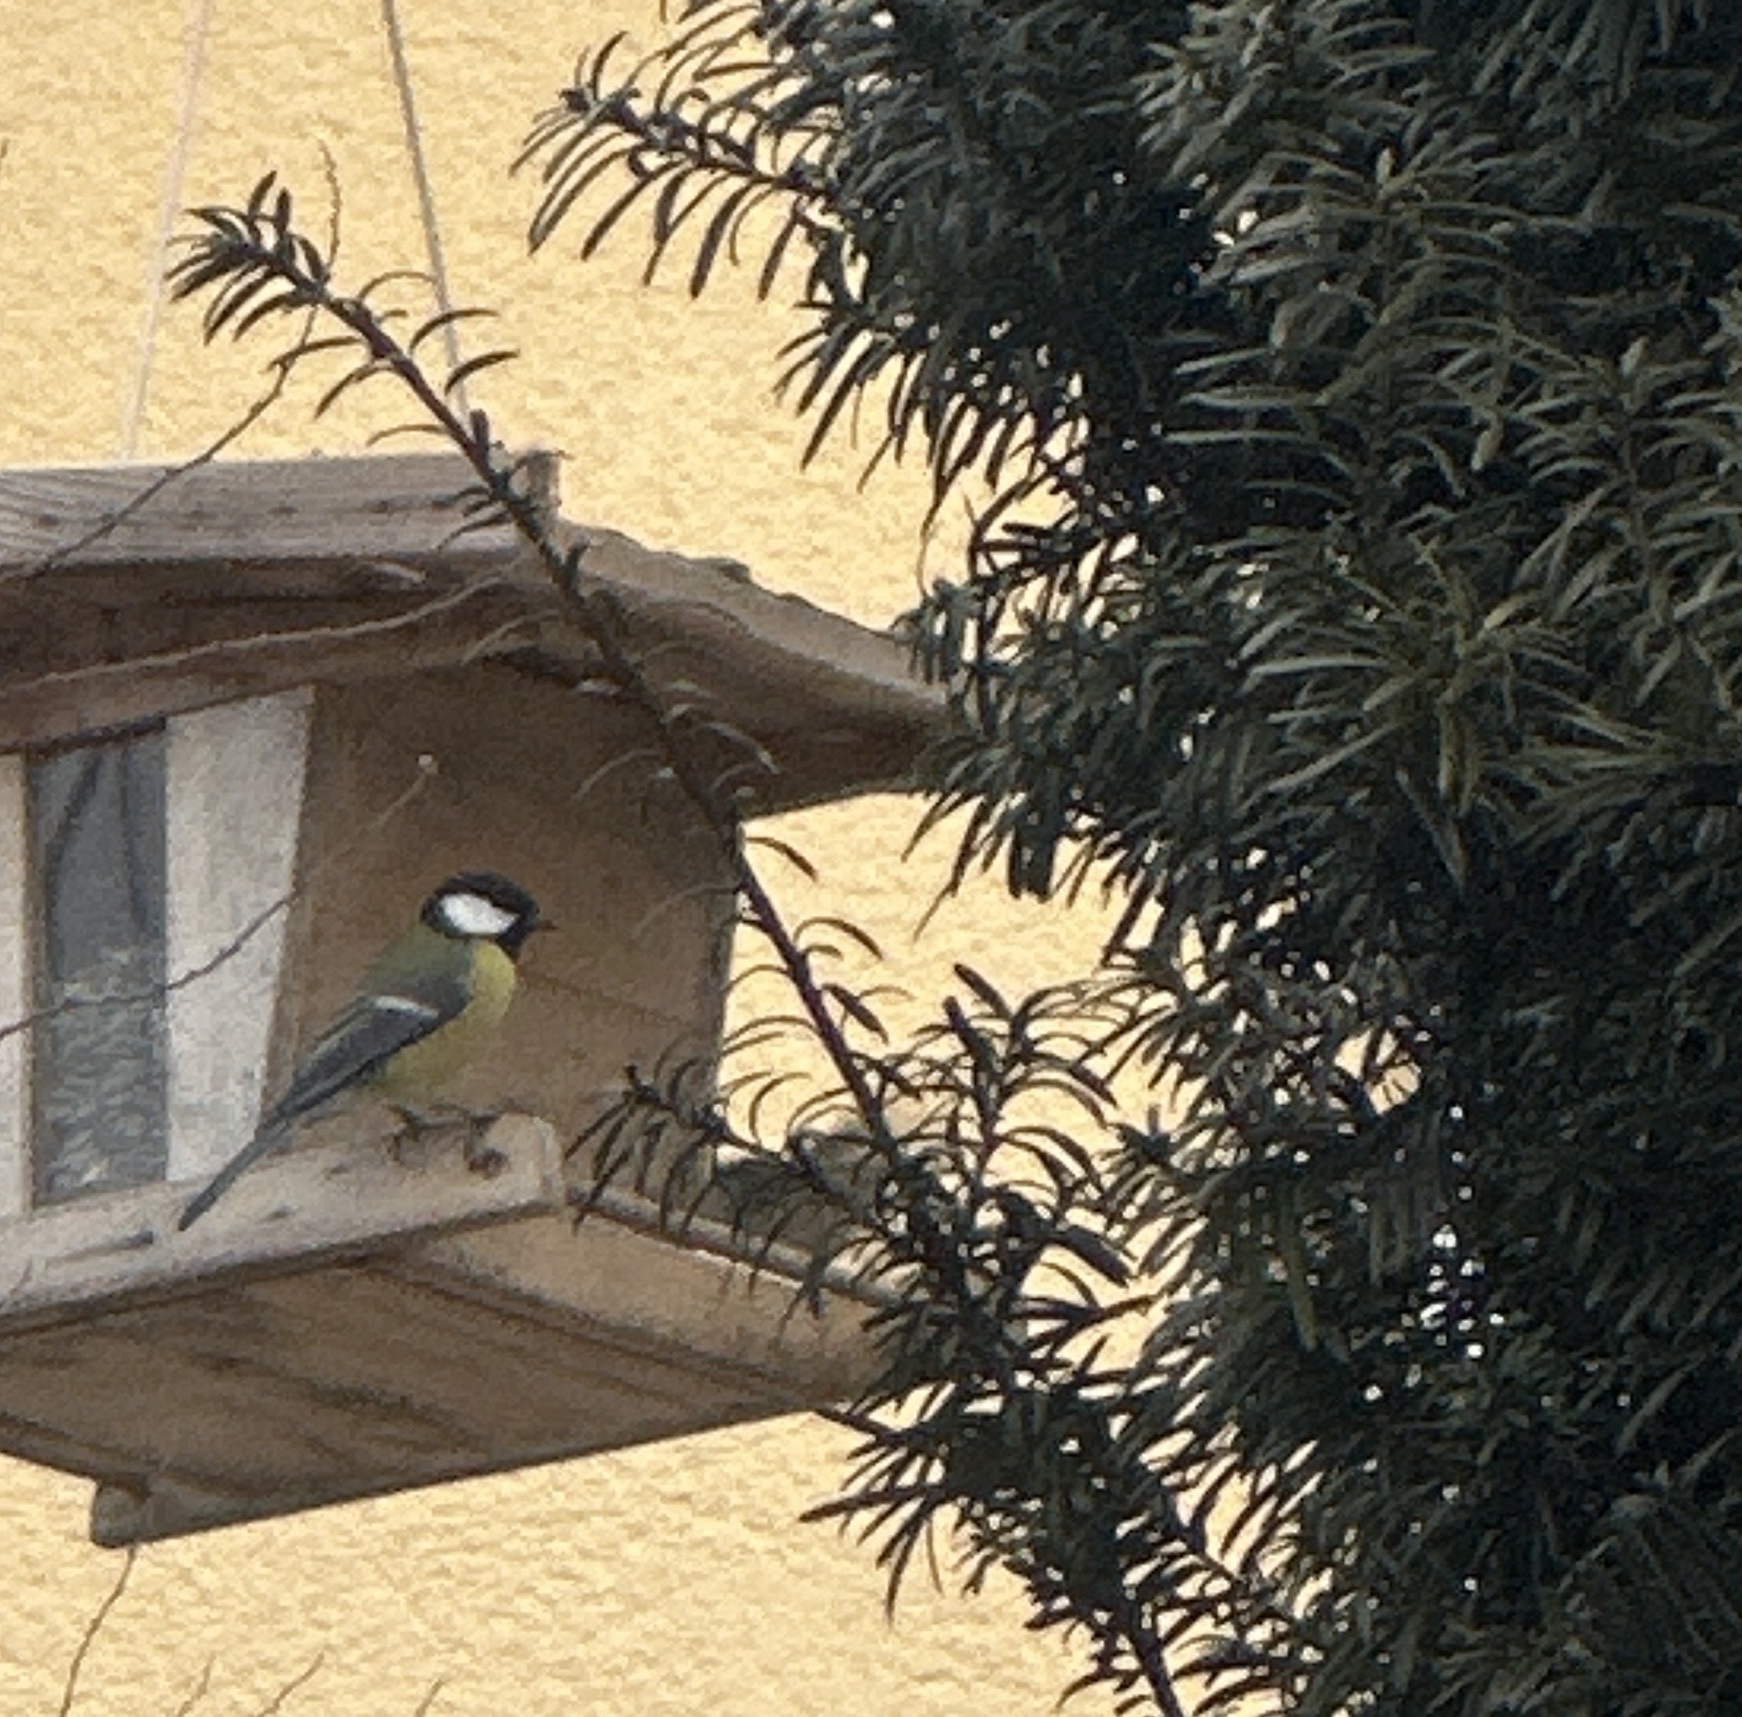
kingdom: Animalia
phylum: Chordata
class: Aves
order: Passeriformes
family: Paridae
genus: Parus
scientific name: Parus major
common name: Great tit
